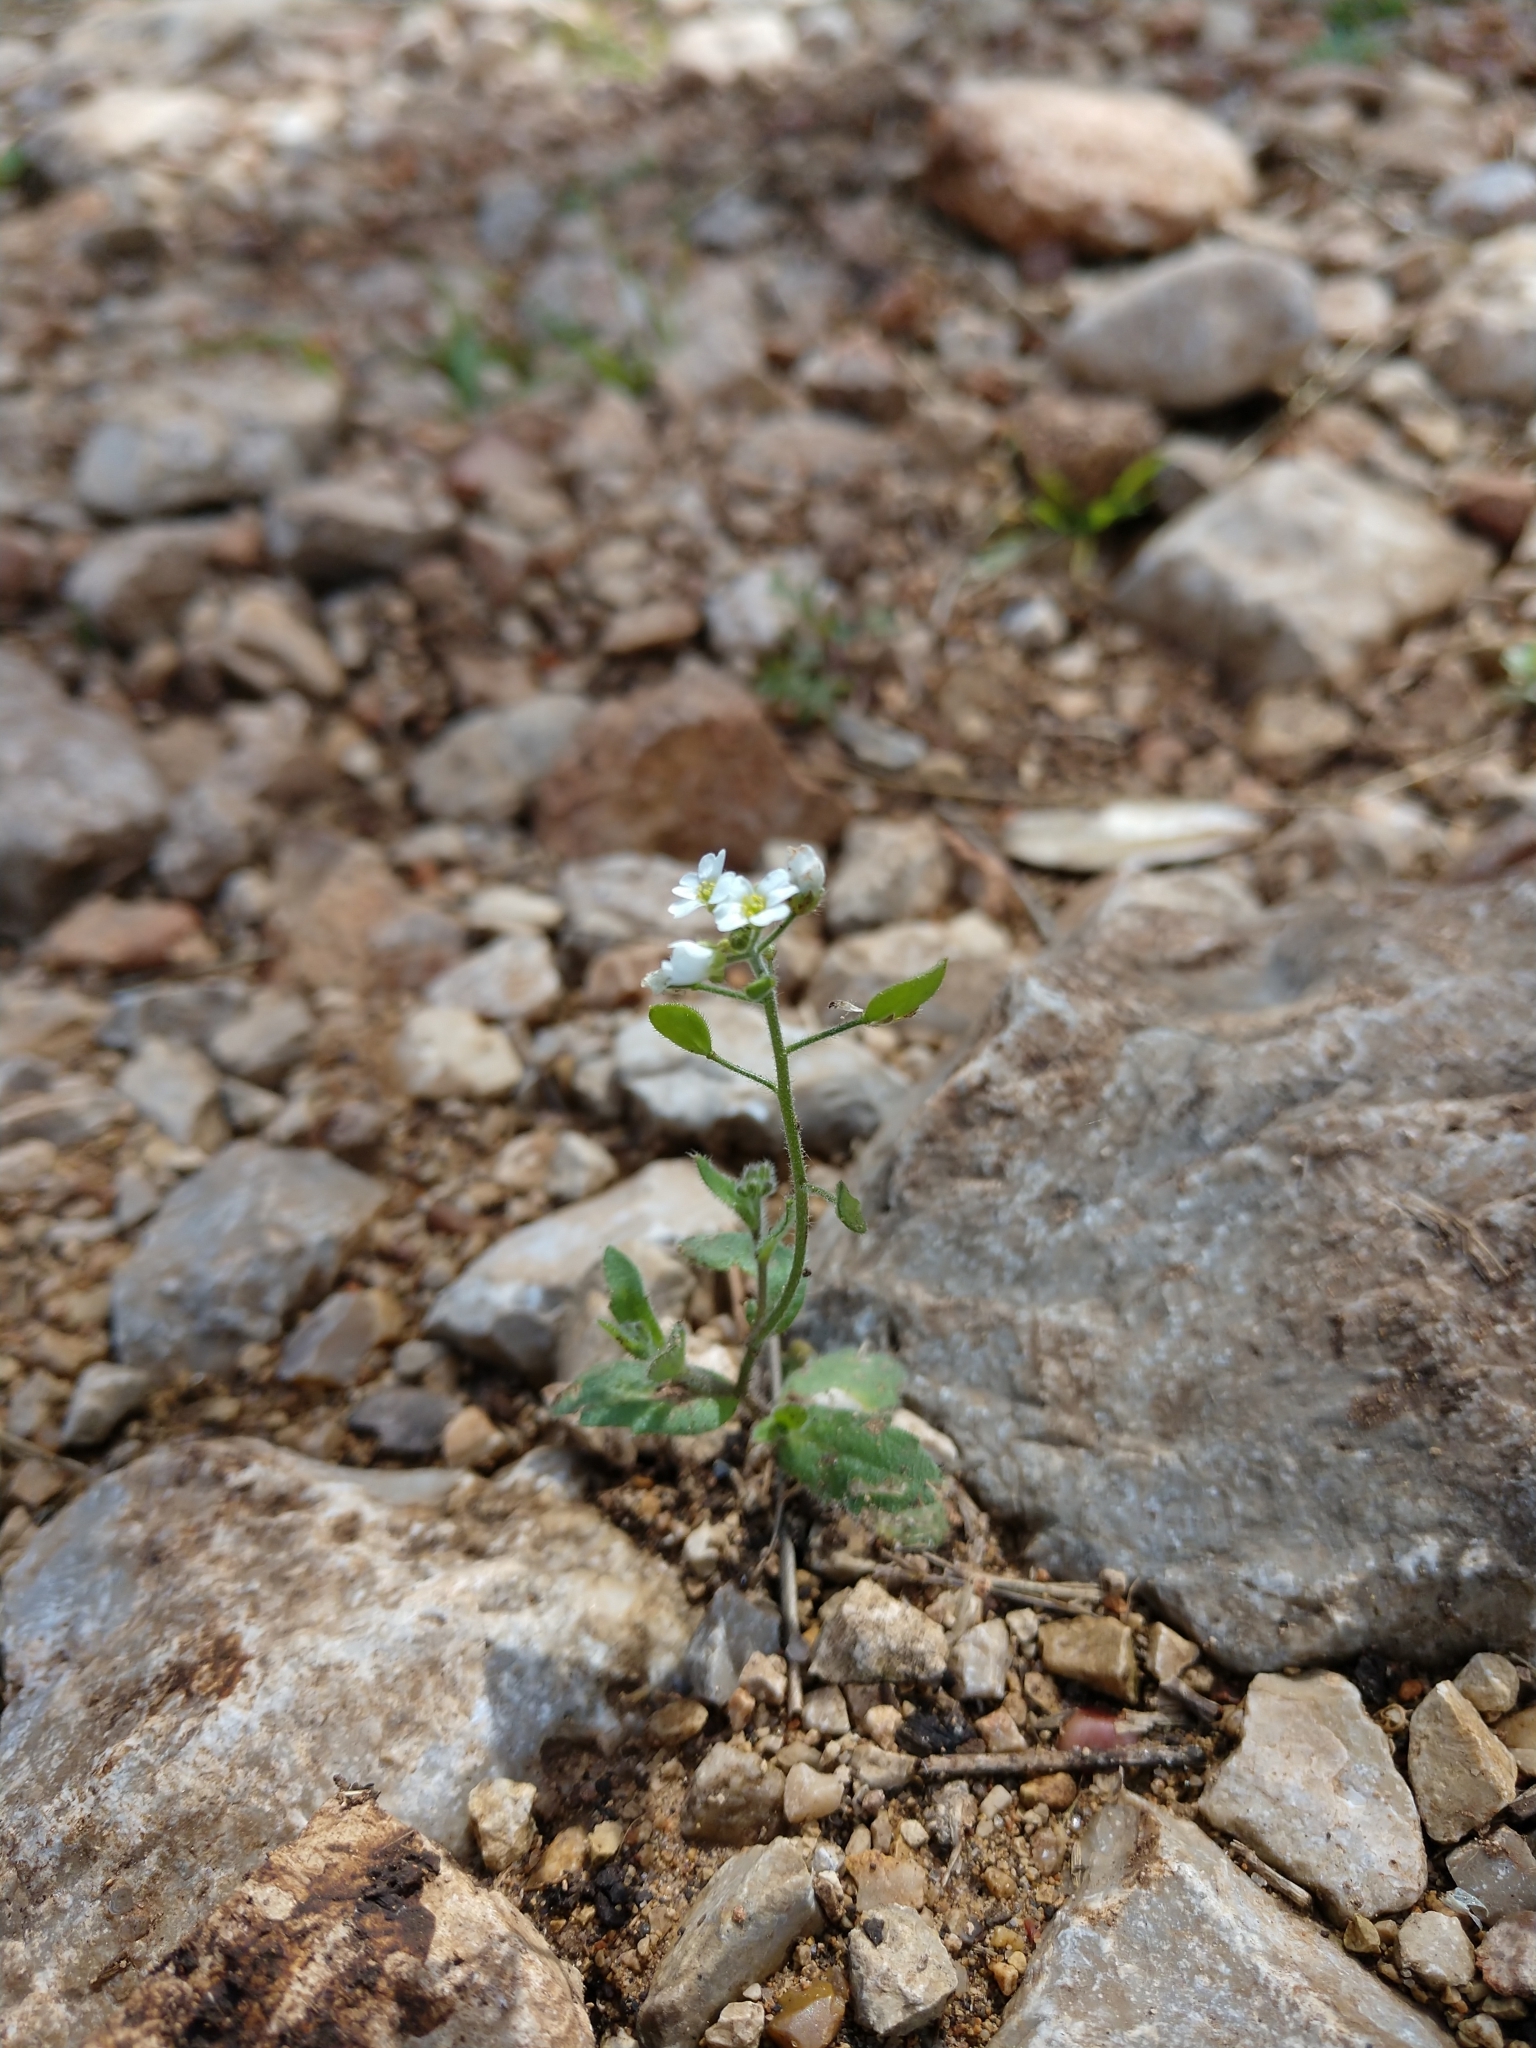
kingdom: Plantae
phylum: Tracheophyta
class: Magnoliopsida
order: Brassicales
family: Brassicaceae
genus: Tomostima
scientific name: Tomostima platycarpa
